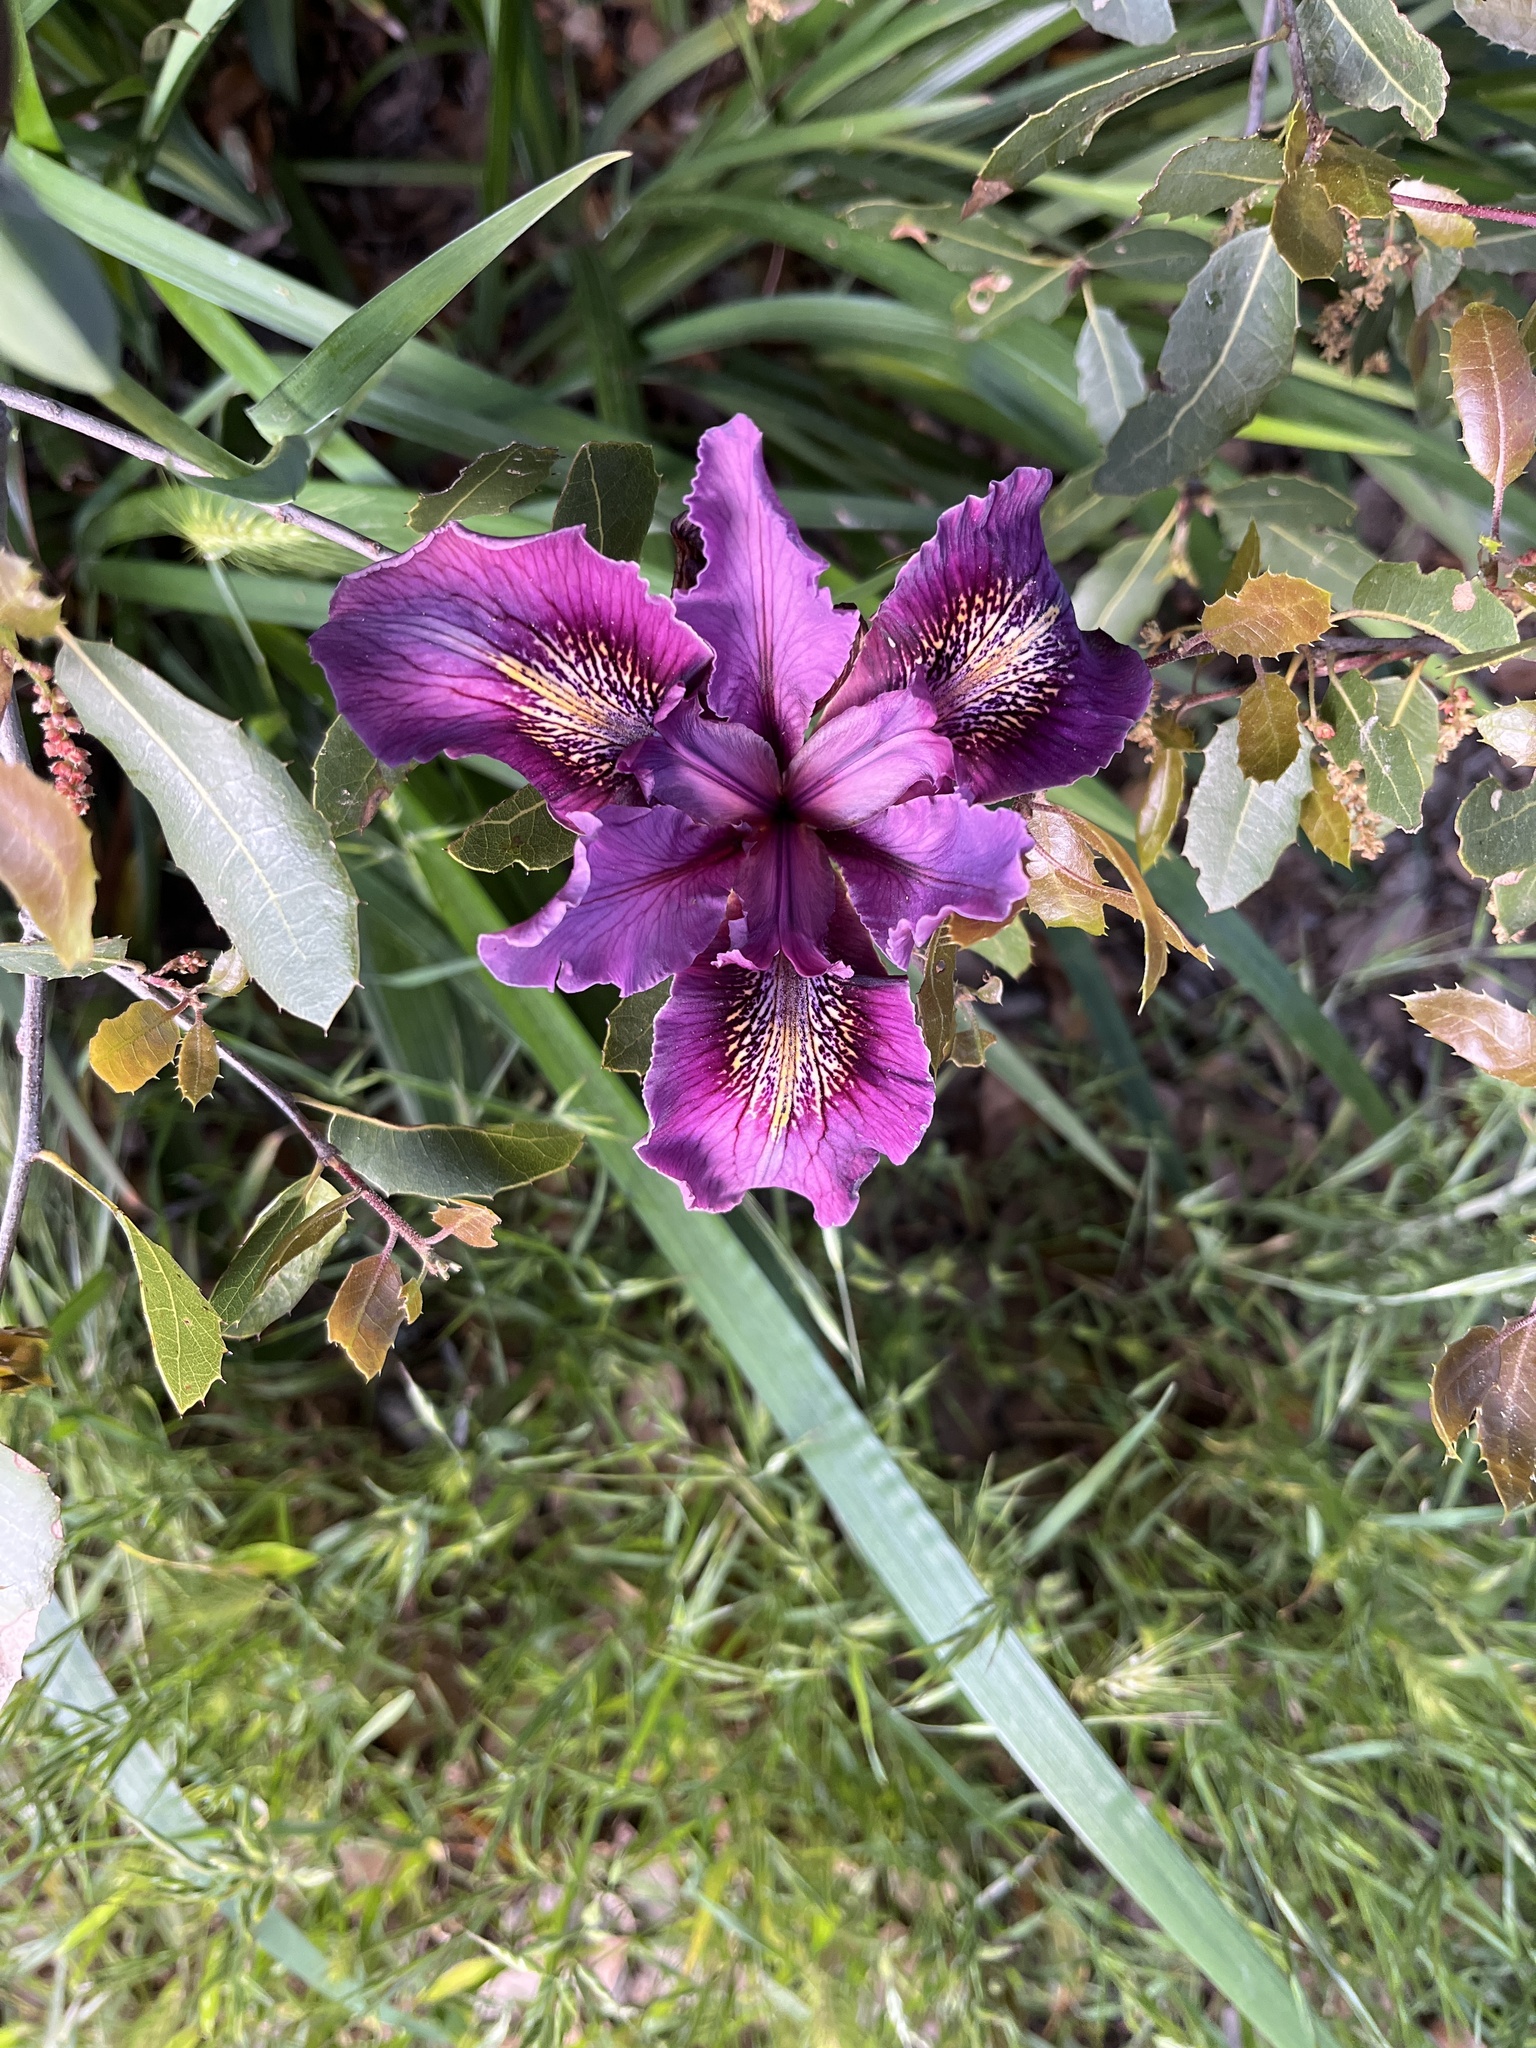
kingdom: Plantae
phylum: Tracheophyta
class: Liliopsida
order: Asparagales
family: Iridaceae
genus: Iris
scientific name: Iris douglasiana
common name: Marin iris
